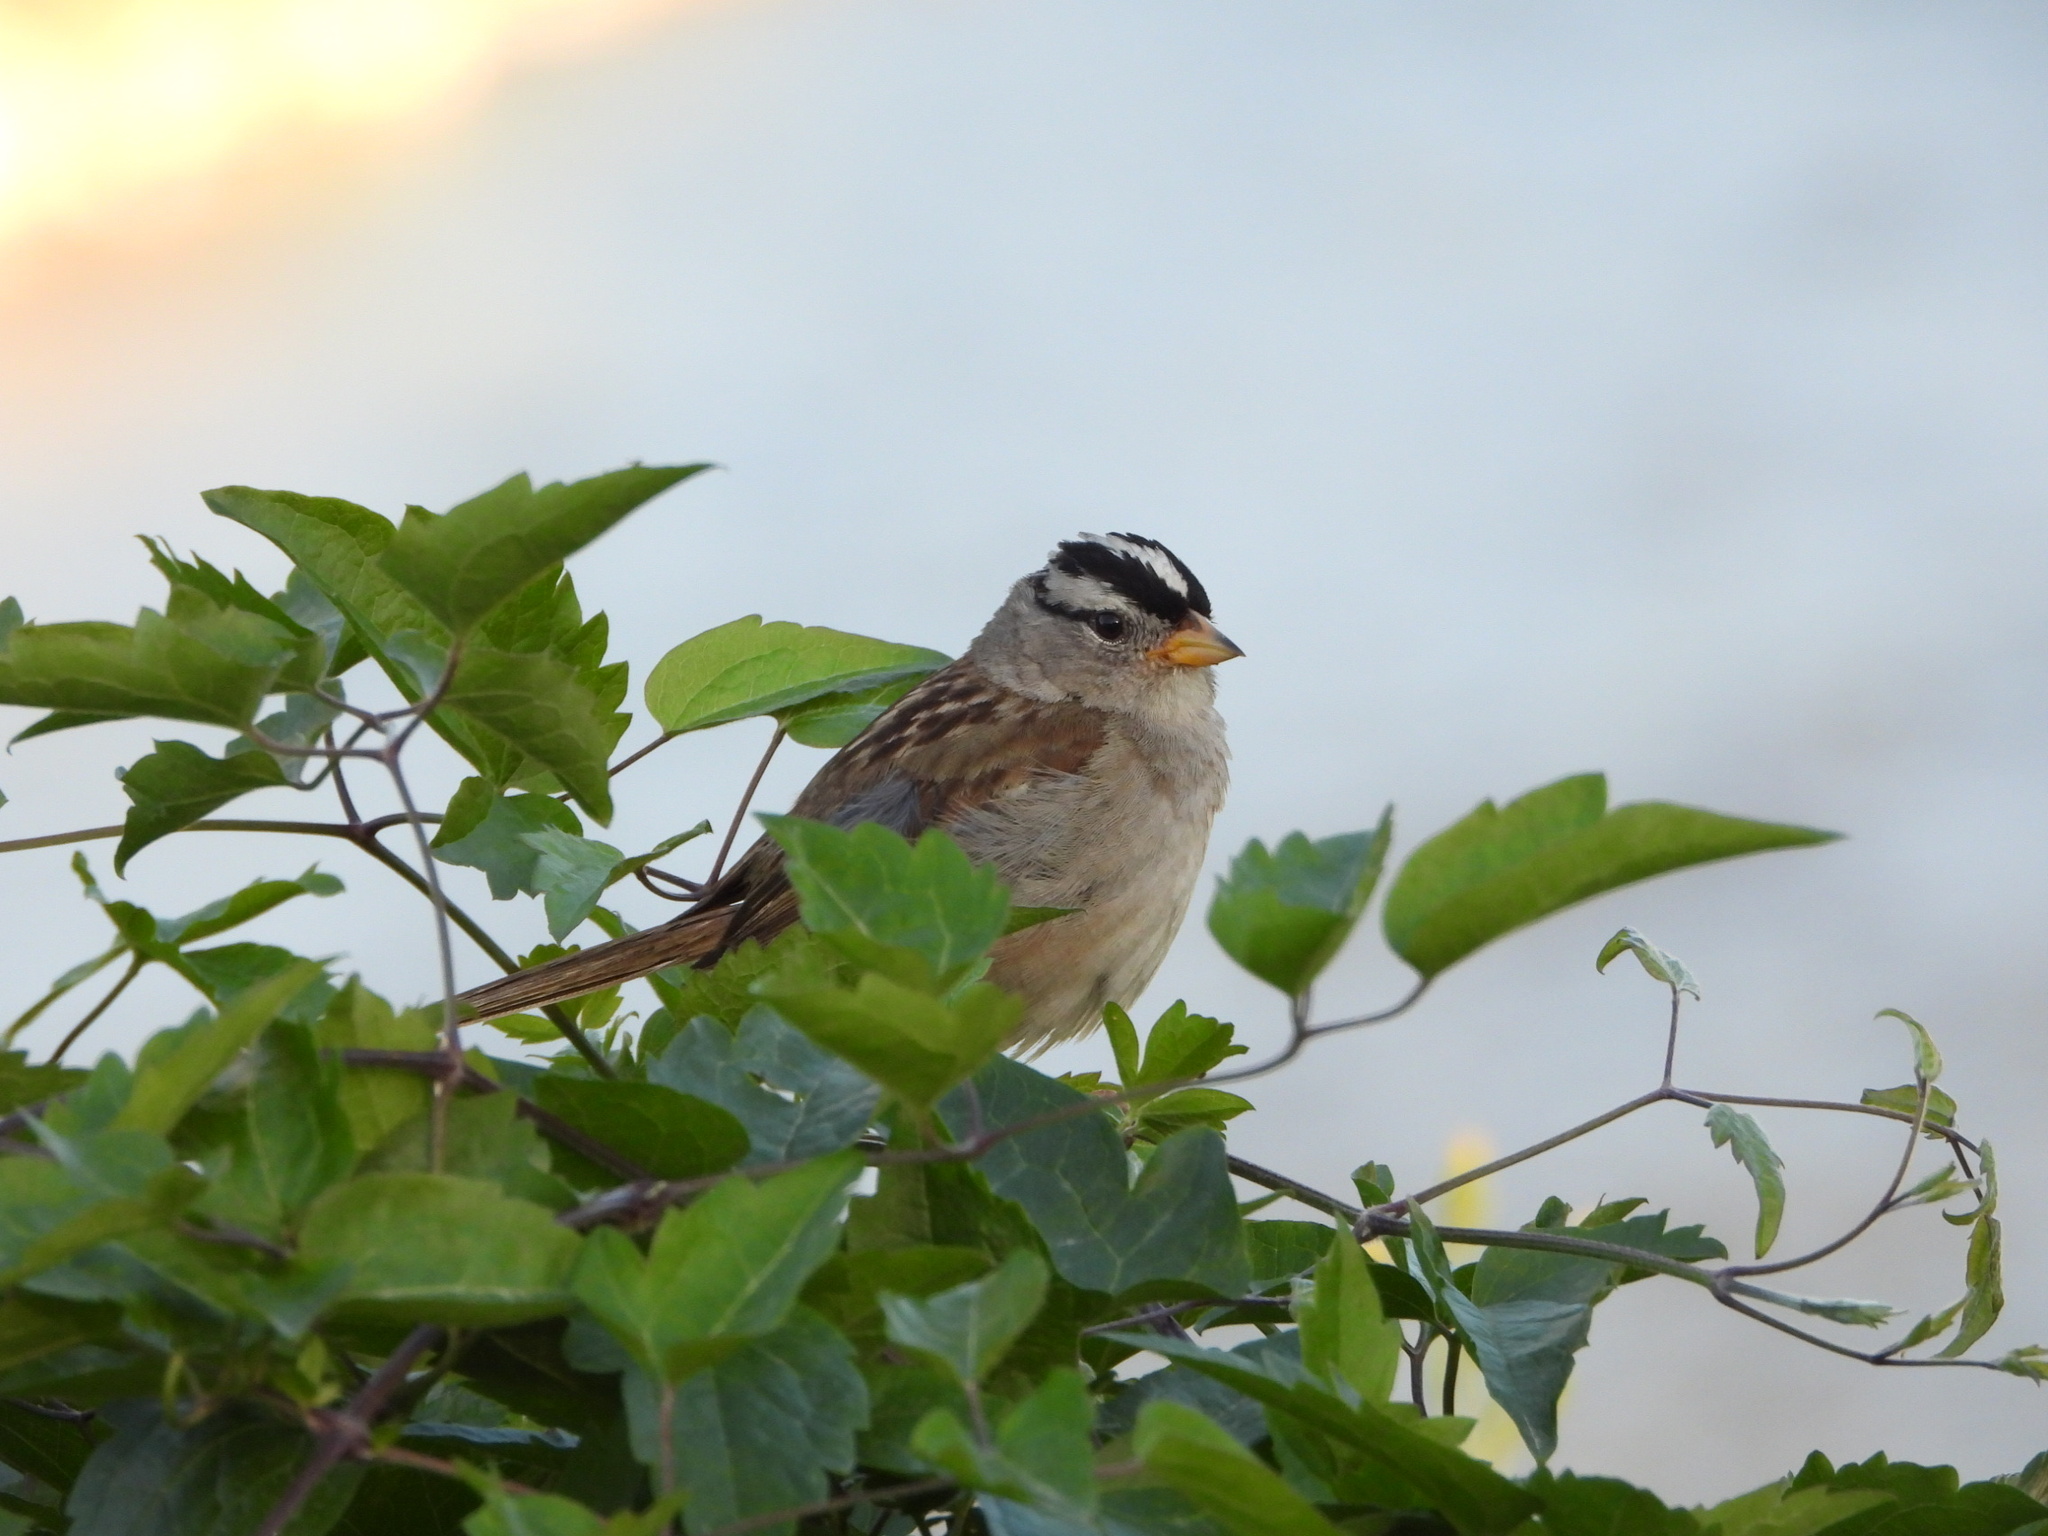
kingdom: Animalia
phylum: Chordata
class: Aves
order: Passeriformes
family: Passerellidae
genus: Zonotrichia
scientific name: Zonotrichia leucophrys
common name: White-crowned sparrow
